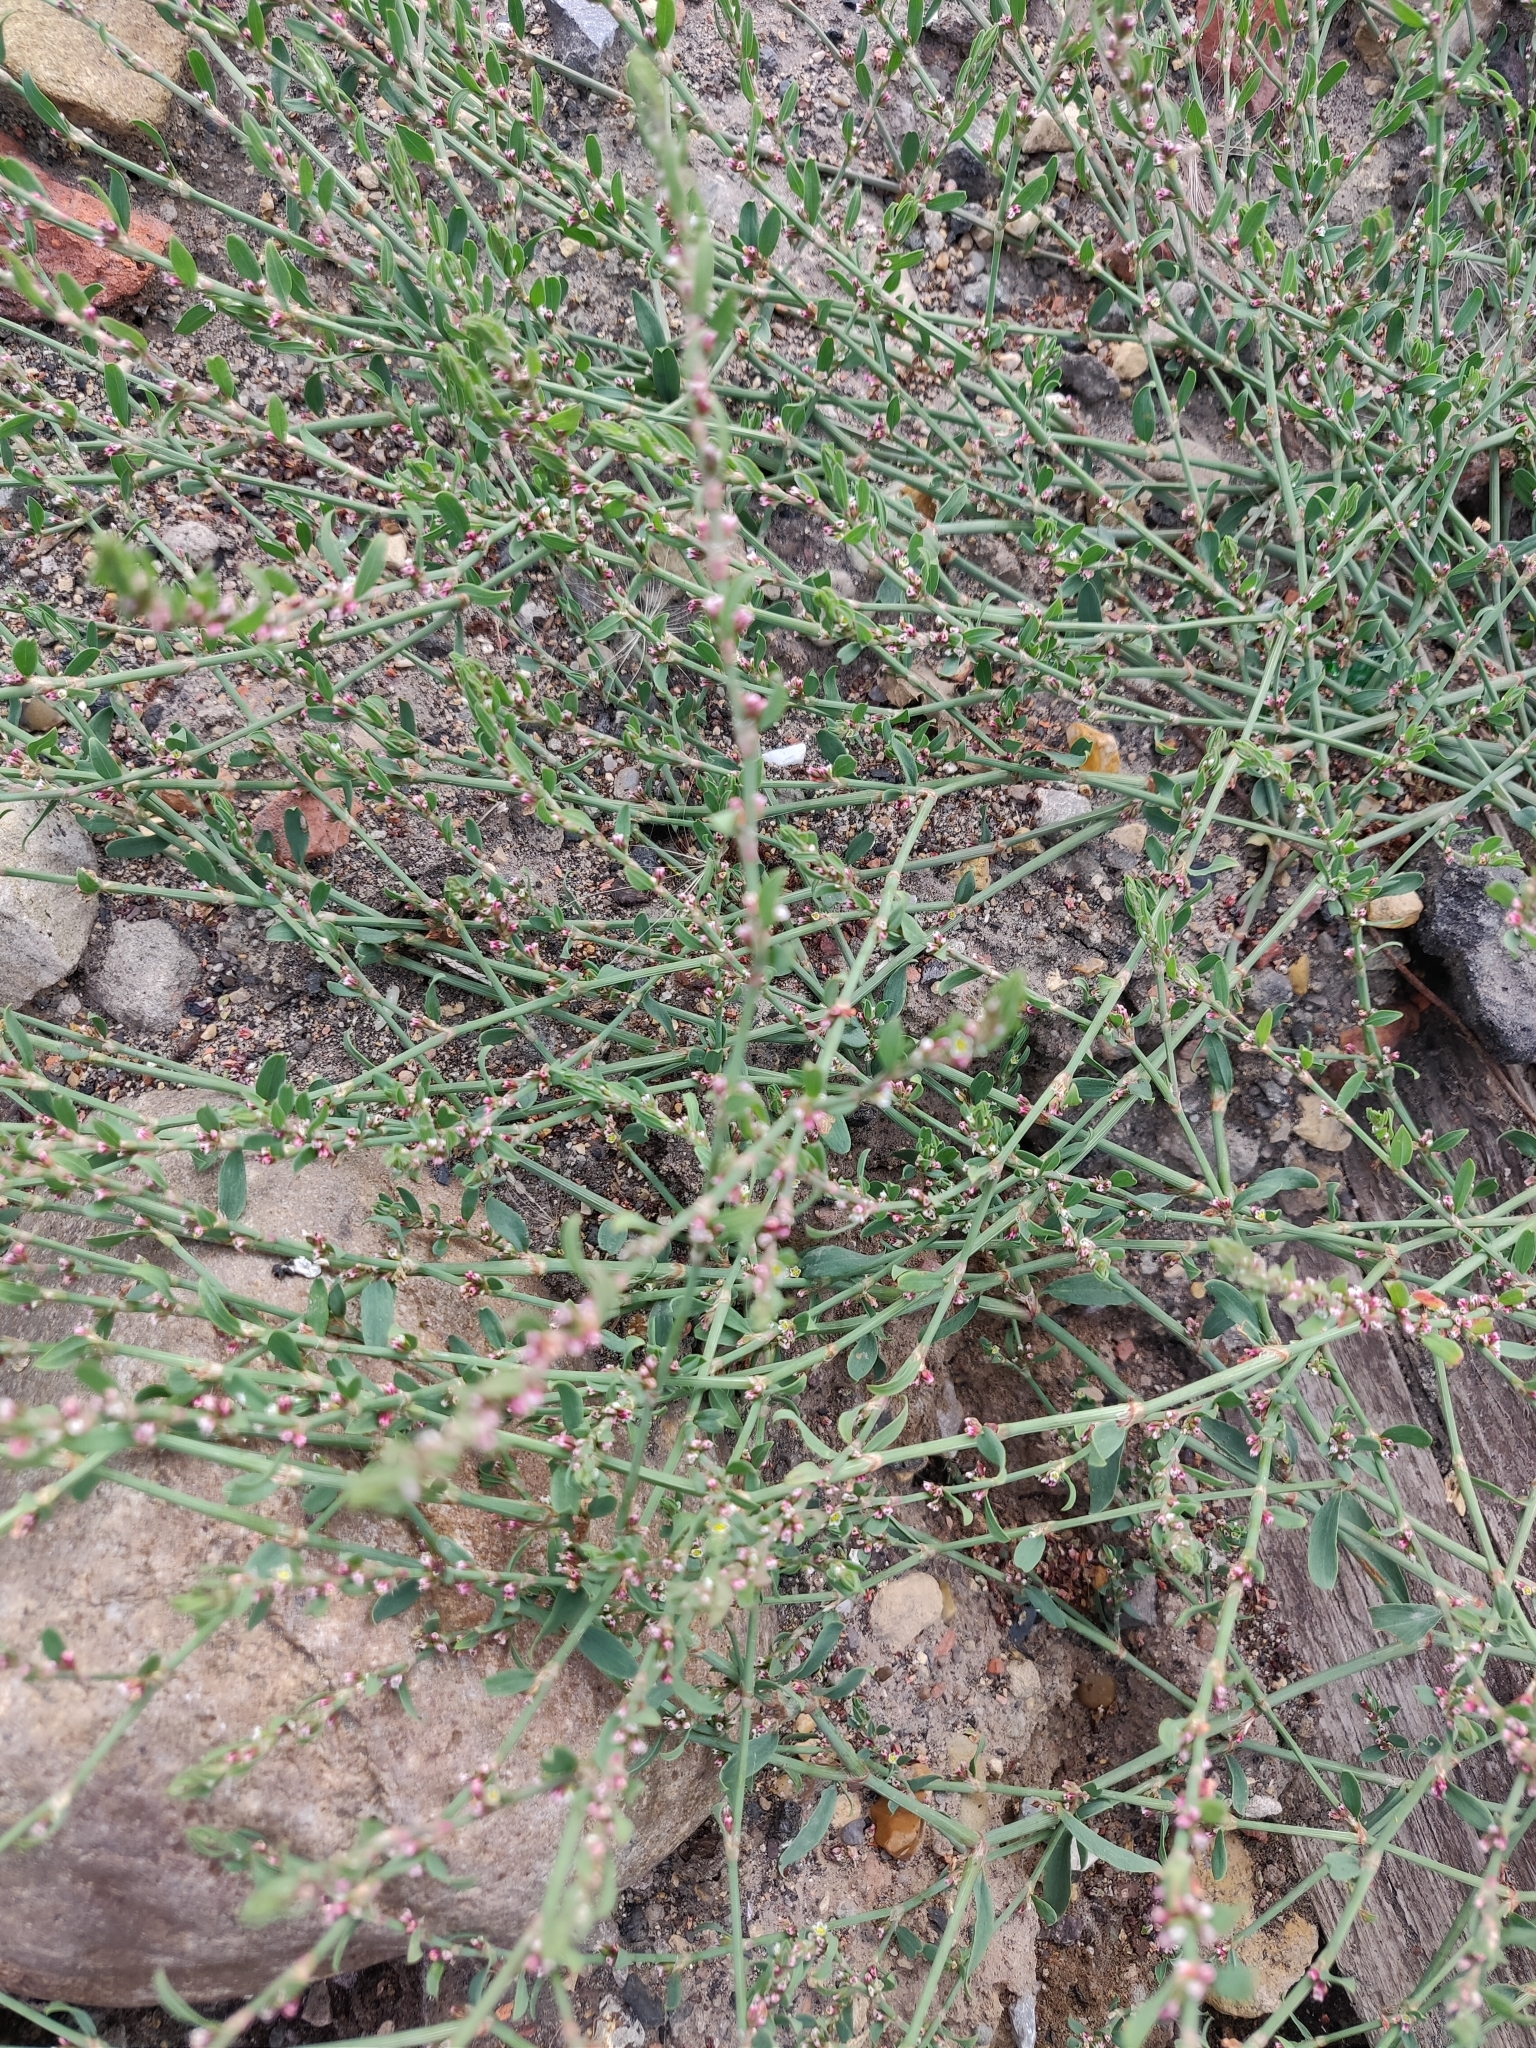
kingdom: Plantae
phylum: Tracheophyta
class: Magnoliopsida
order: Caryophyllales
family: Polygonaceae
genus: Polygonum
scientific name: Polygonum aviculare
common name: Prostrate knotweed
